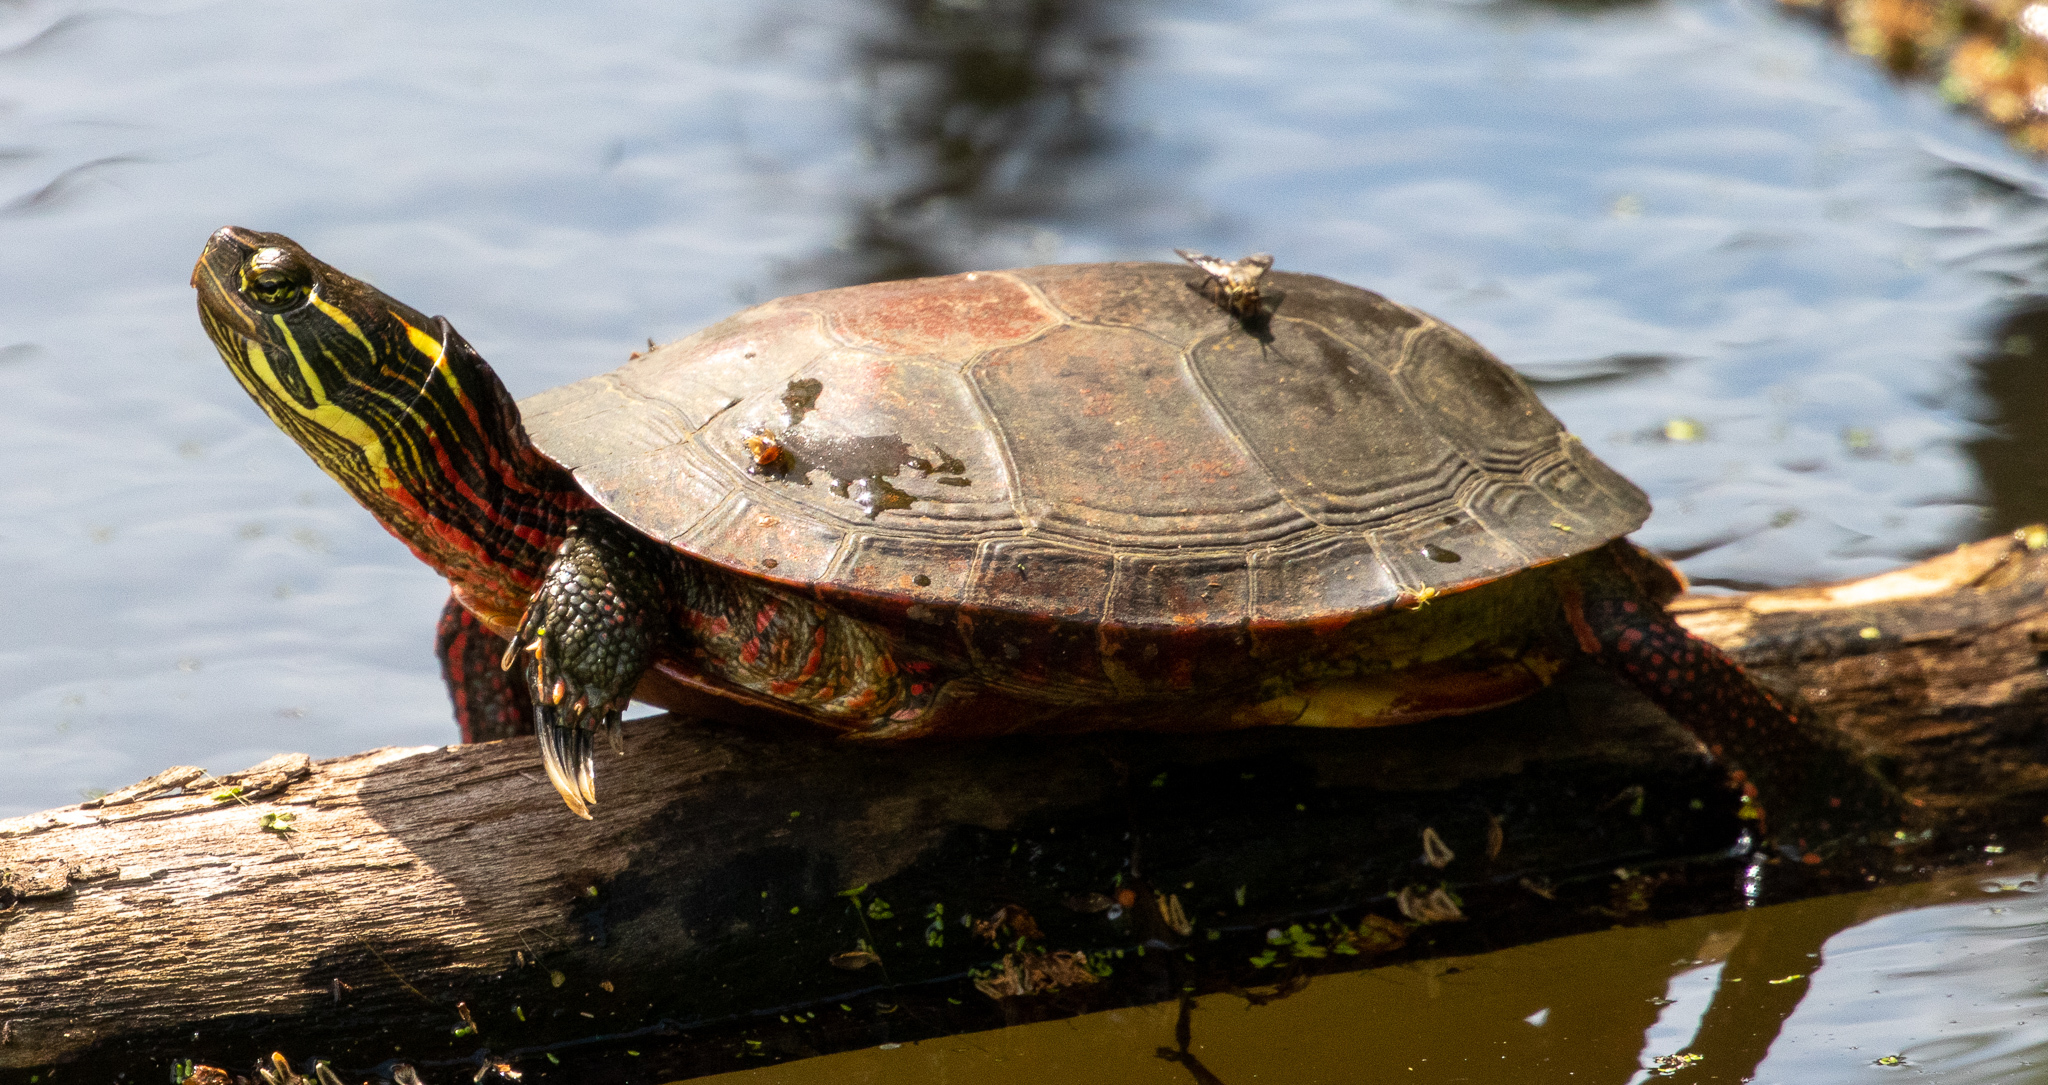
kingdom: Animalia
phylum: Chordata
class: Testudines
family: Emydidae
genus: Chrysemys
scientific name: Chrysemys picta
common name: Painted turtle
